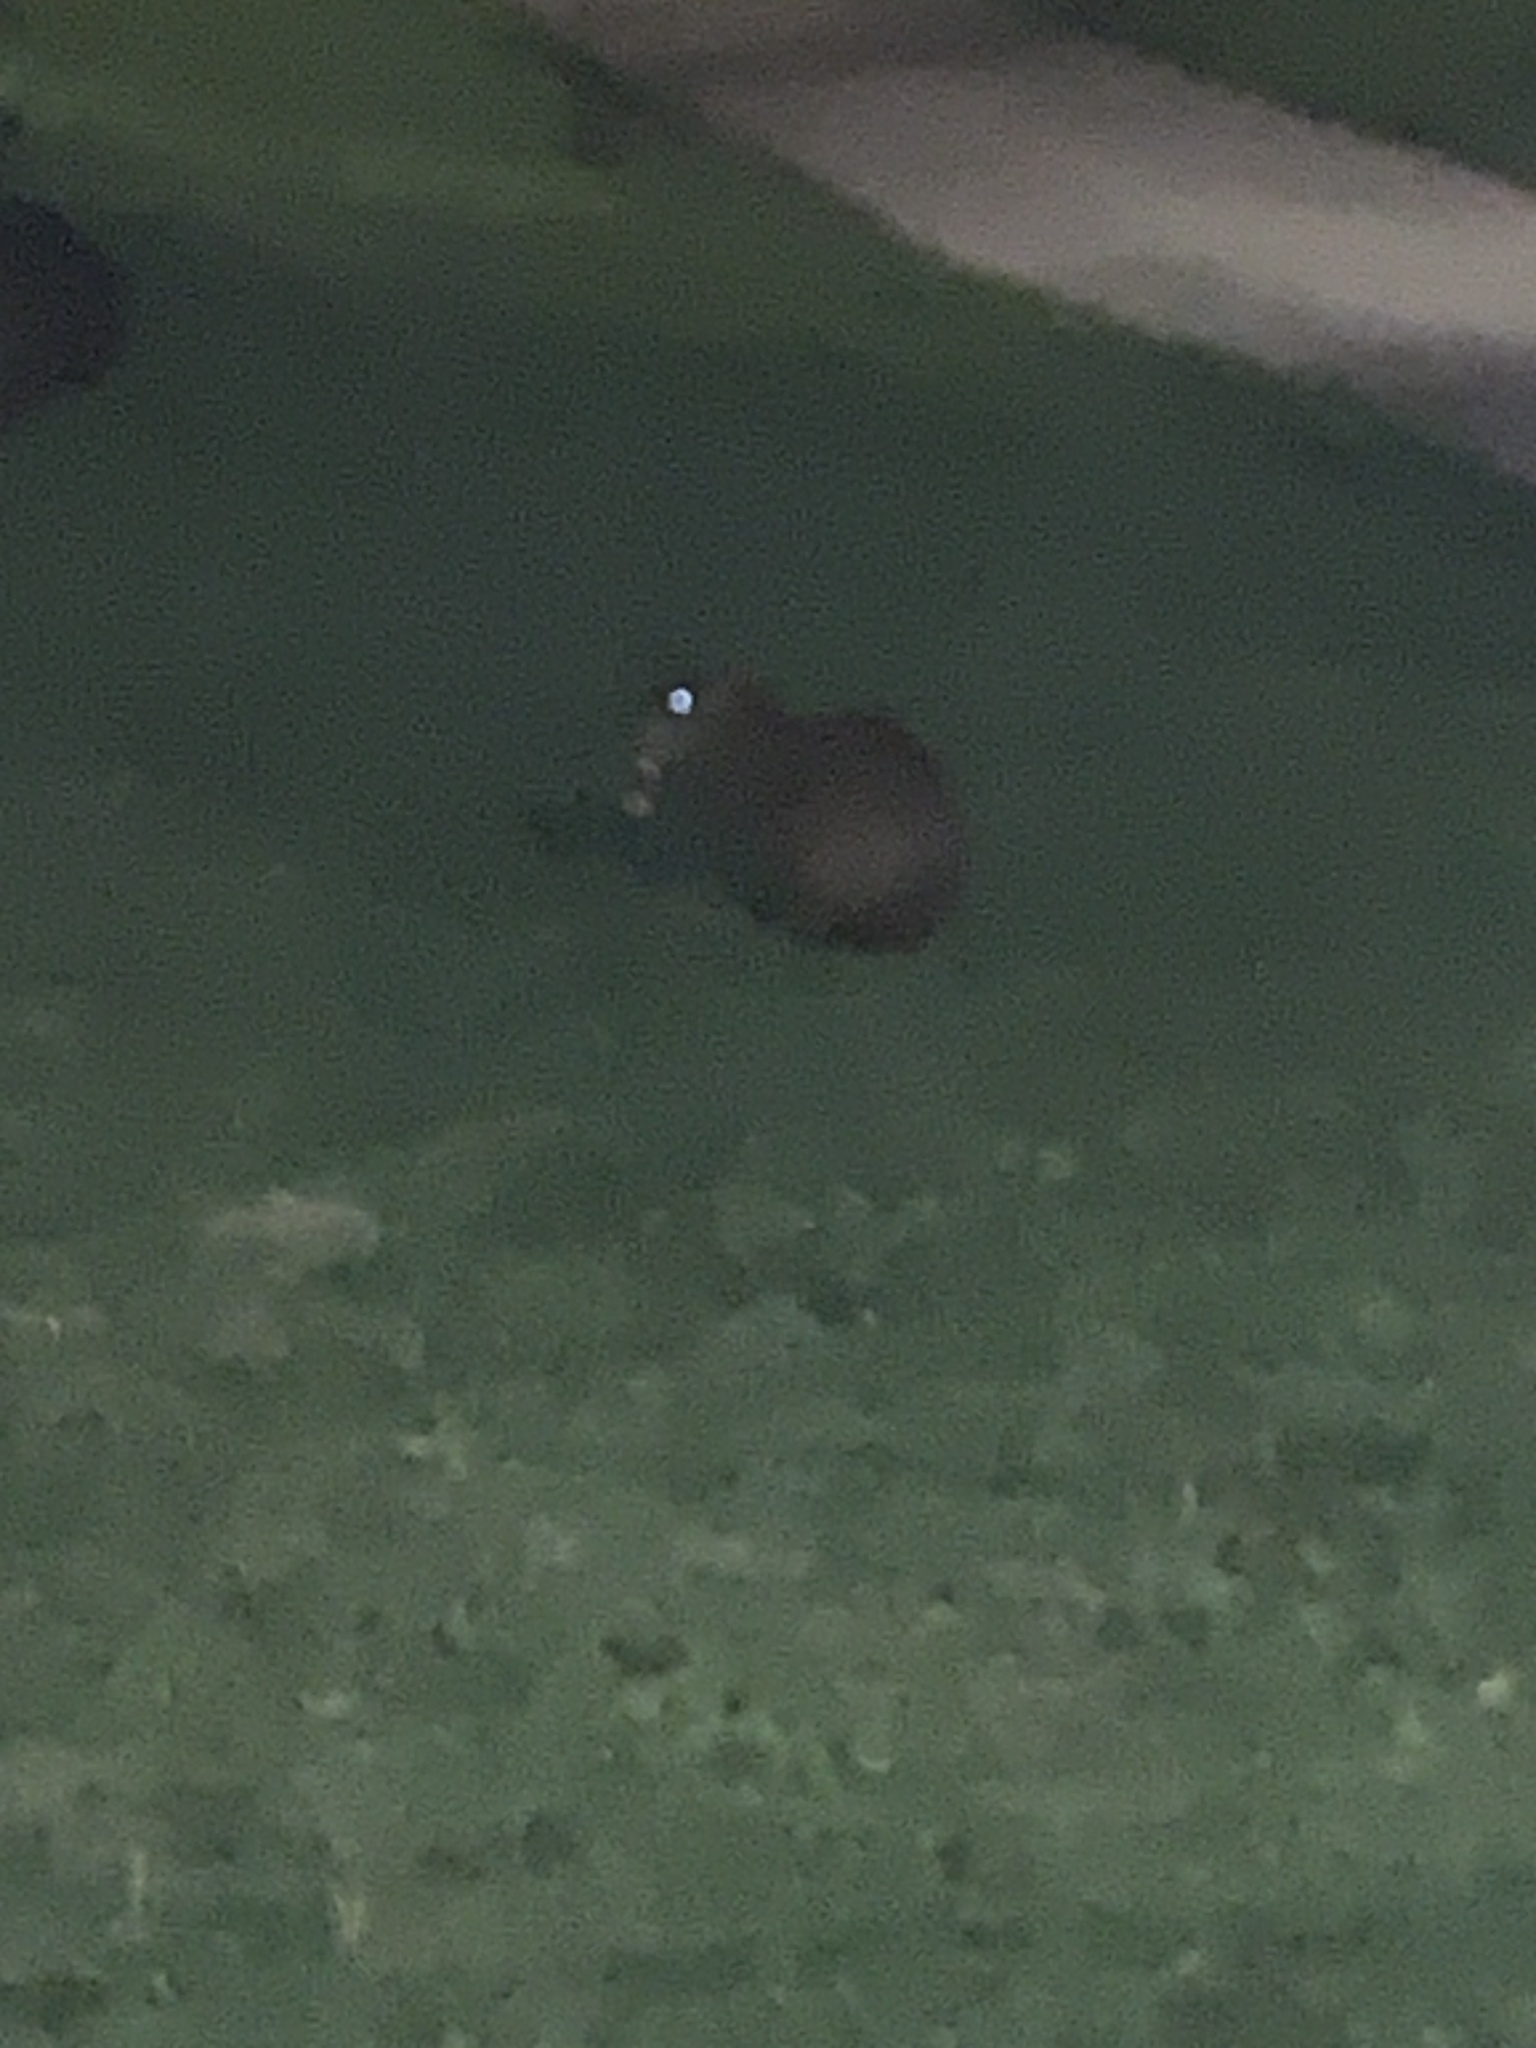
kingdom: Animalia
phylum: Chordata
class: Mammalia
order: Rodentia
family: Dasyproctidae
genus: Dasyprocta
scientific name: Dasyprocta punctata
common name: Central american agouti
